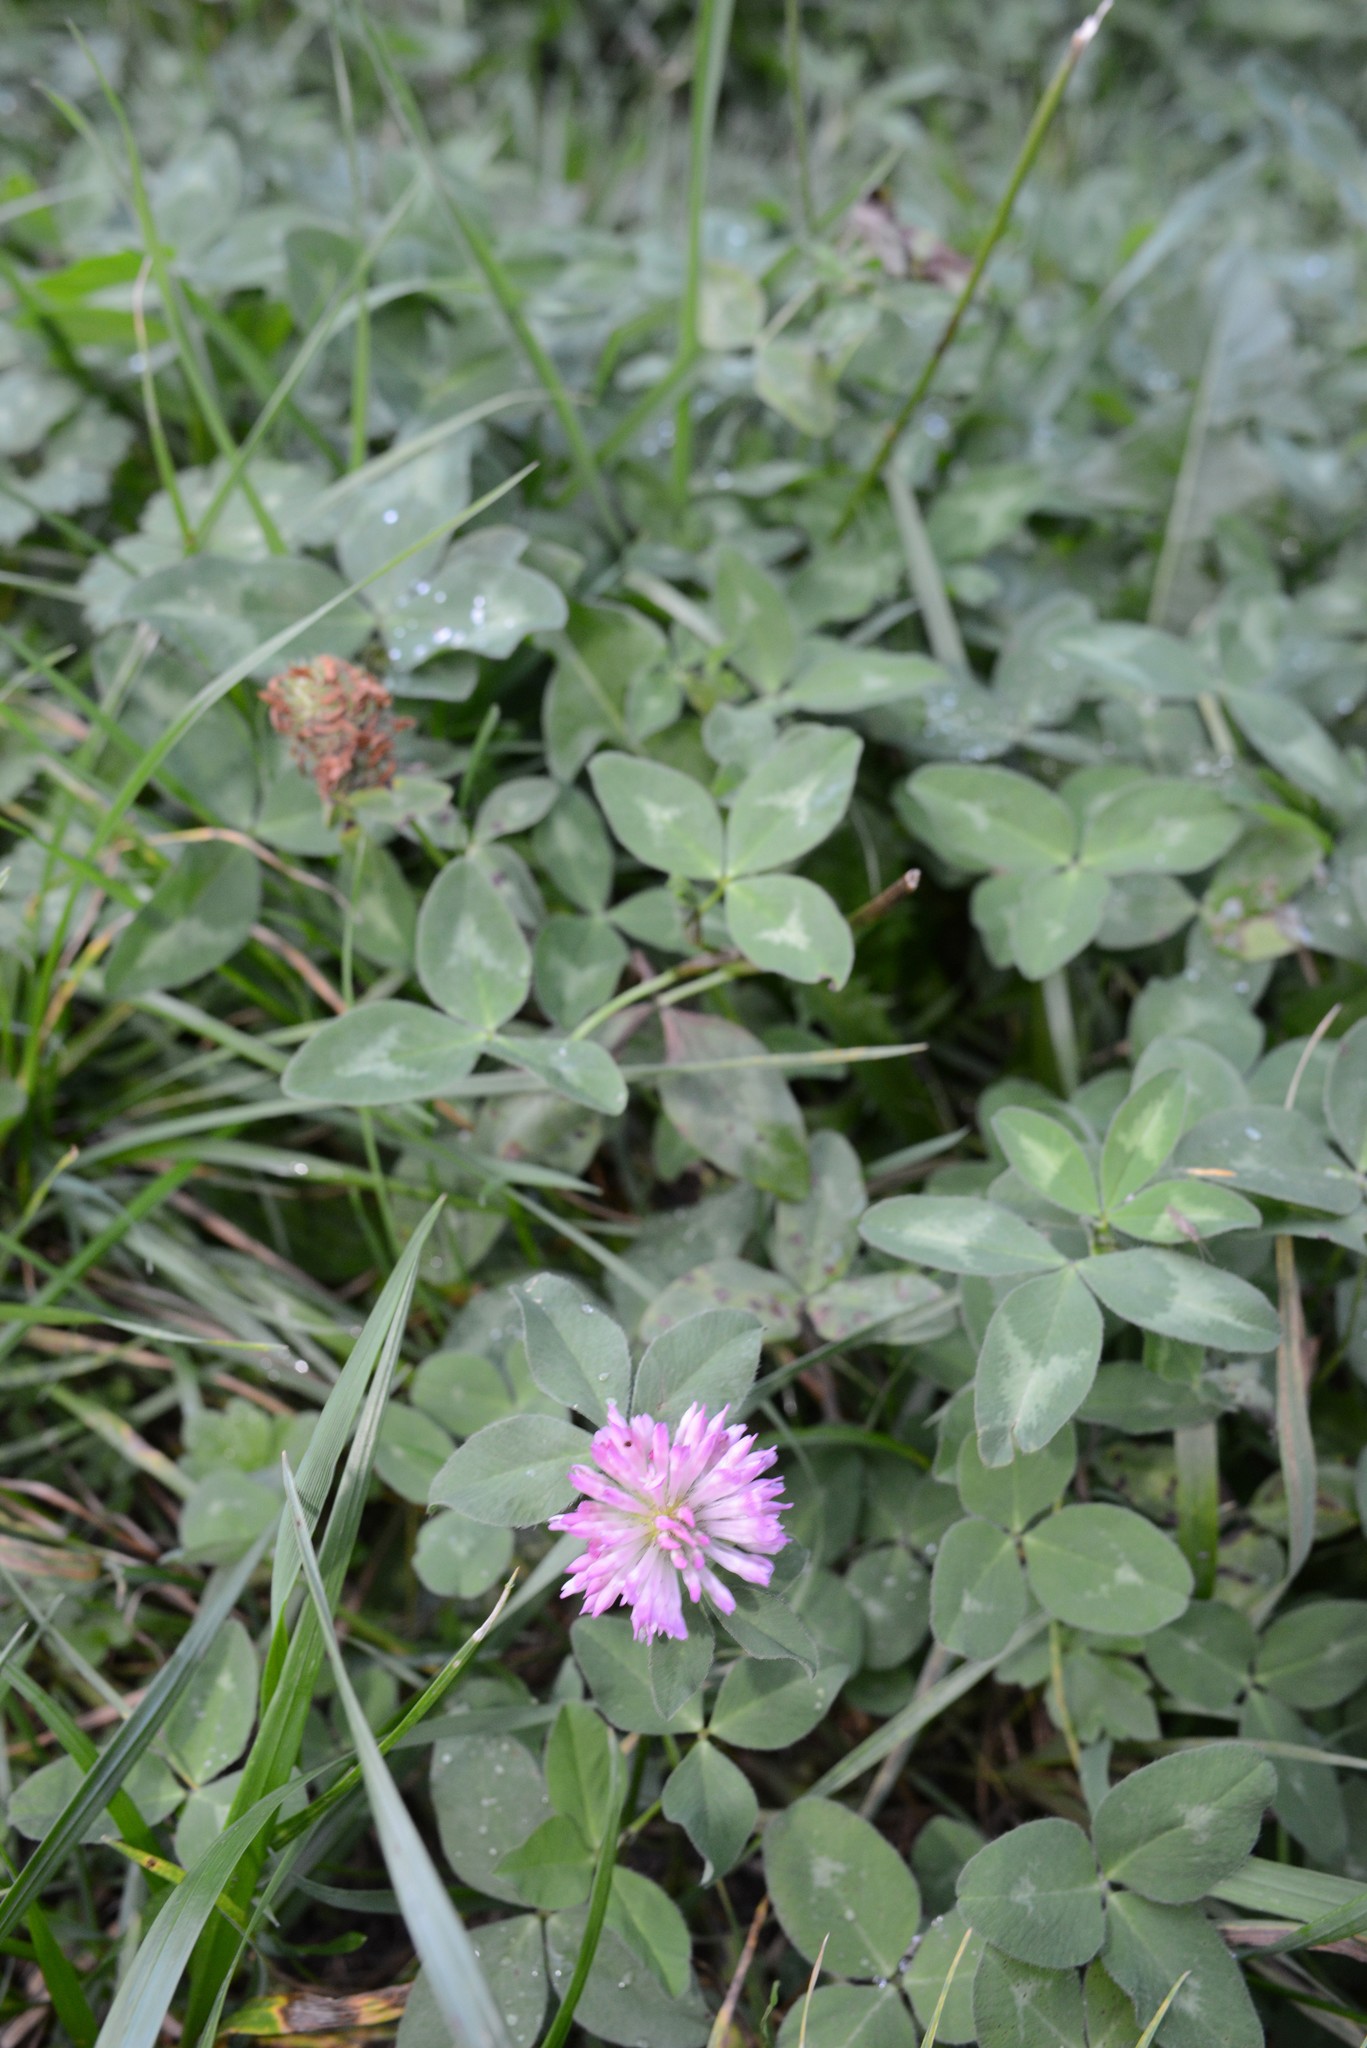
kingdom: Plantae
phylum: Tracheophyta
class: Magnoliopsida
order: Fabales
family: Fabaceae
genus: Trifolium
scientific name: Trifolium pratense
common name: Red clover
